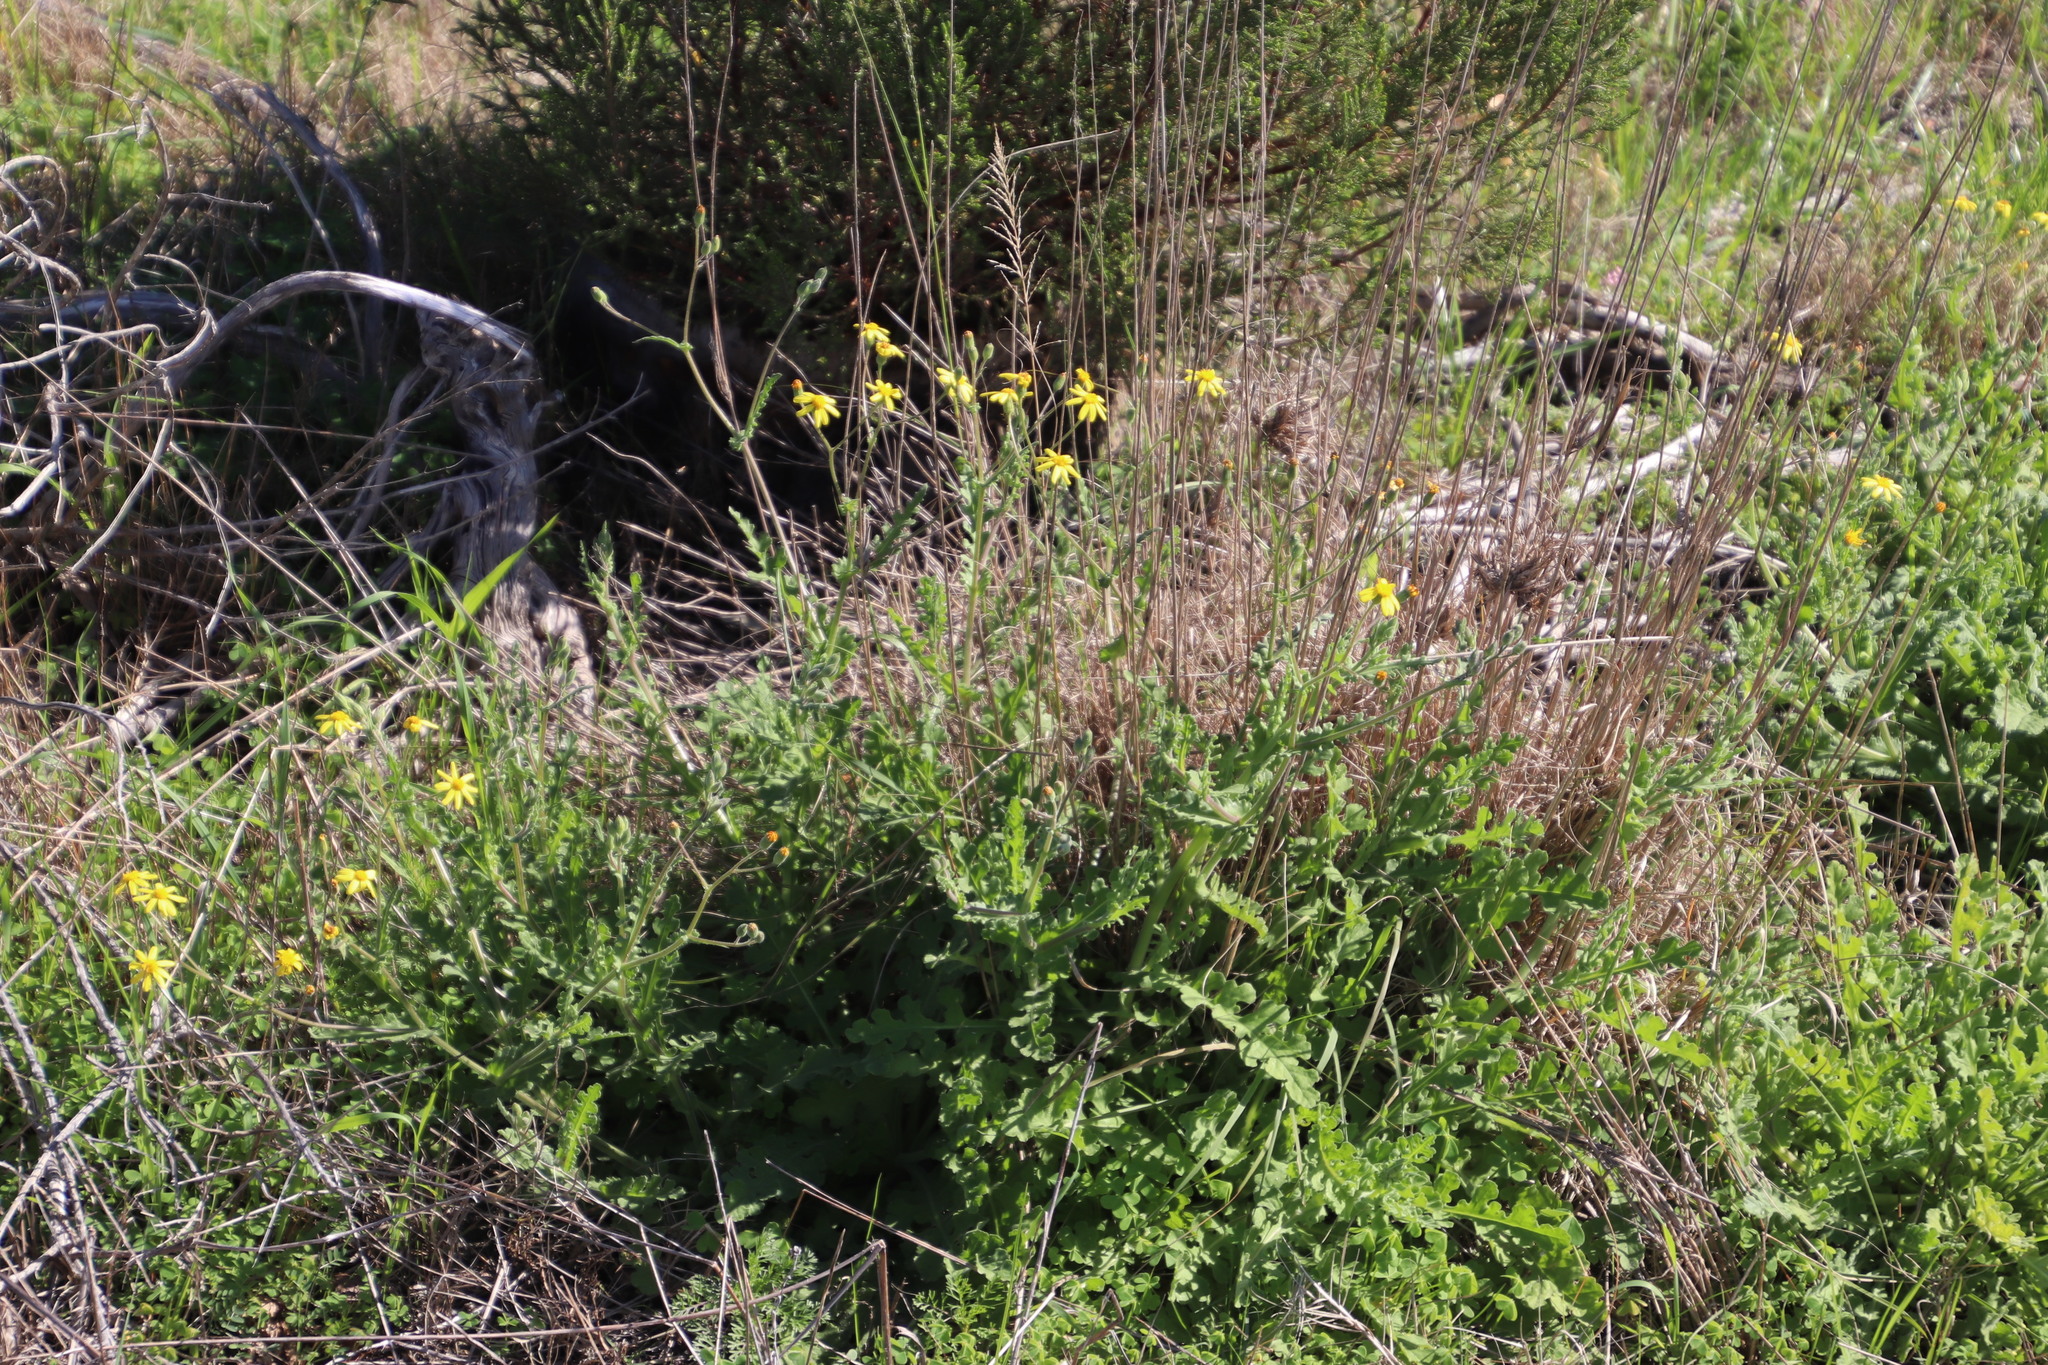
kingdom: Plantae
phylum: Tracheophyta
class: Magnoliopsida
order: Asterales
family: Asteraceae
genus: Senecio
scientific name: Senecio hastatus
